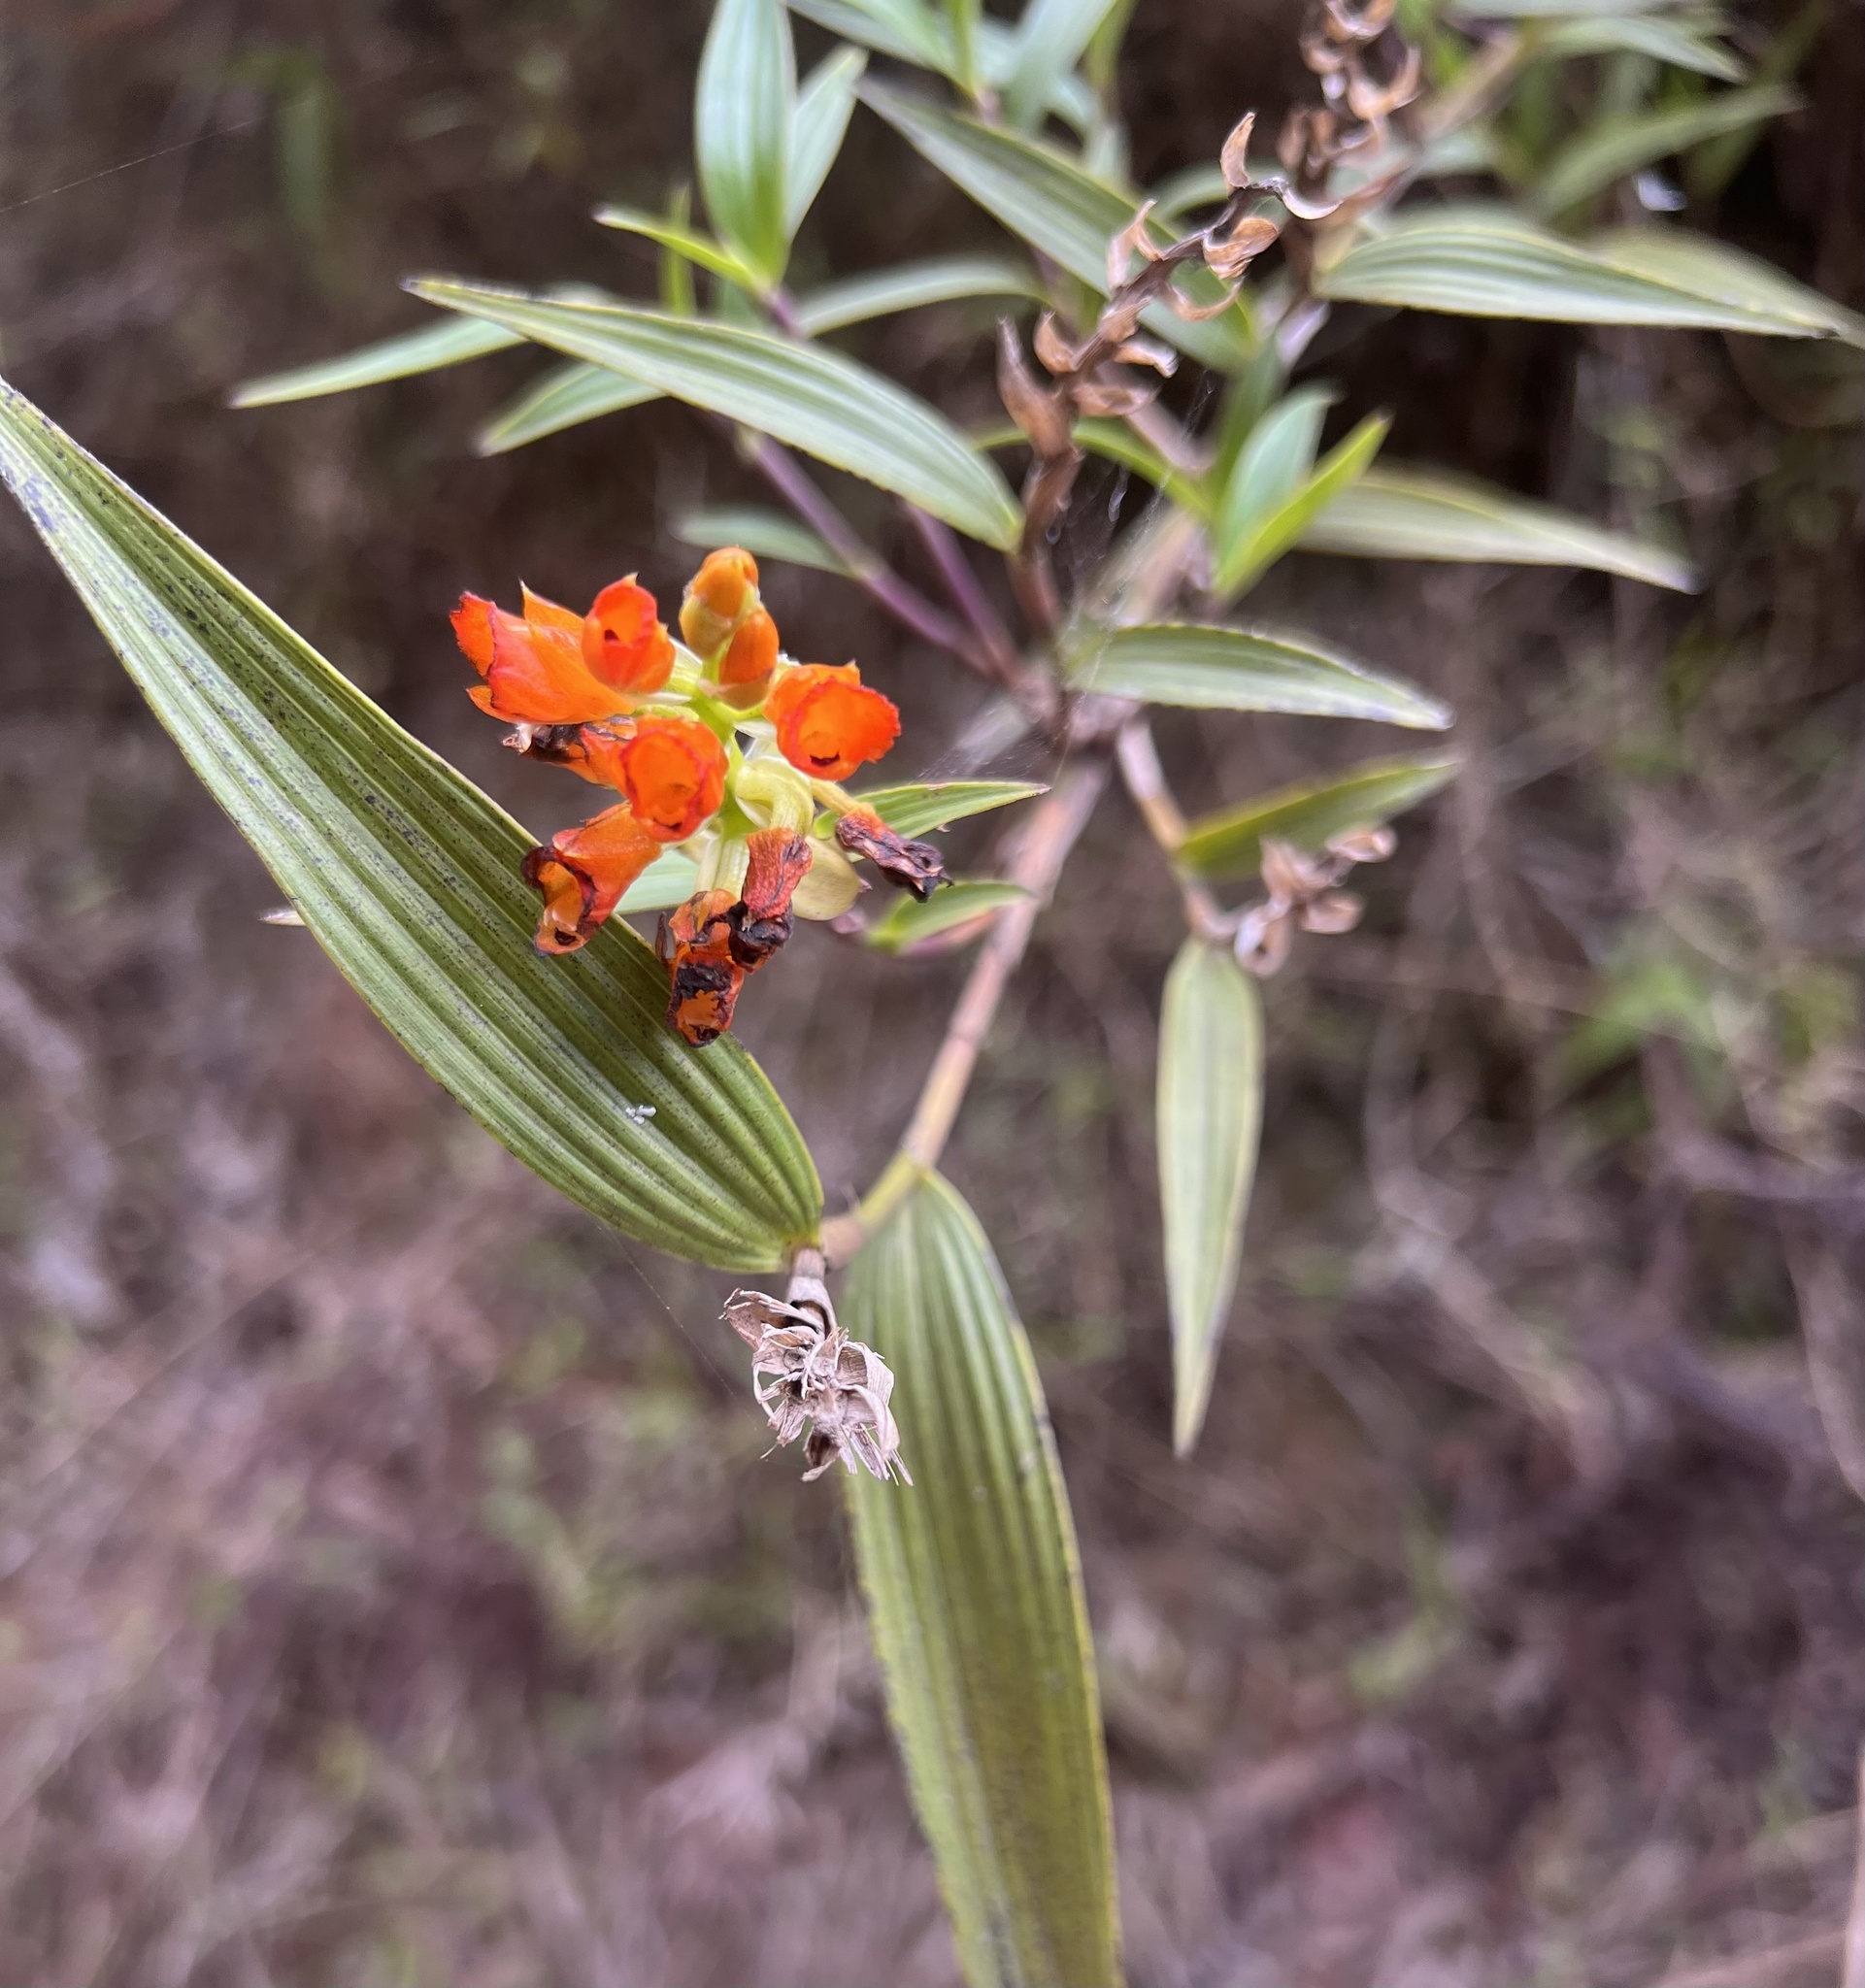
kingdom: Plantae
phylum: Tracheophyta
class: Liliopsida
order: Asparagales
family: Orchidaceae
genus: Elleanthus
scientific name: Elleanthus aurantiacus
